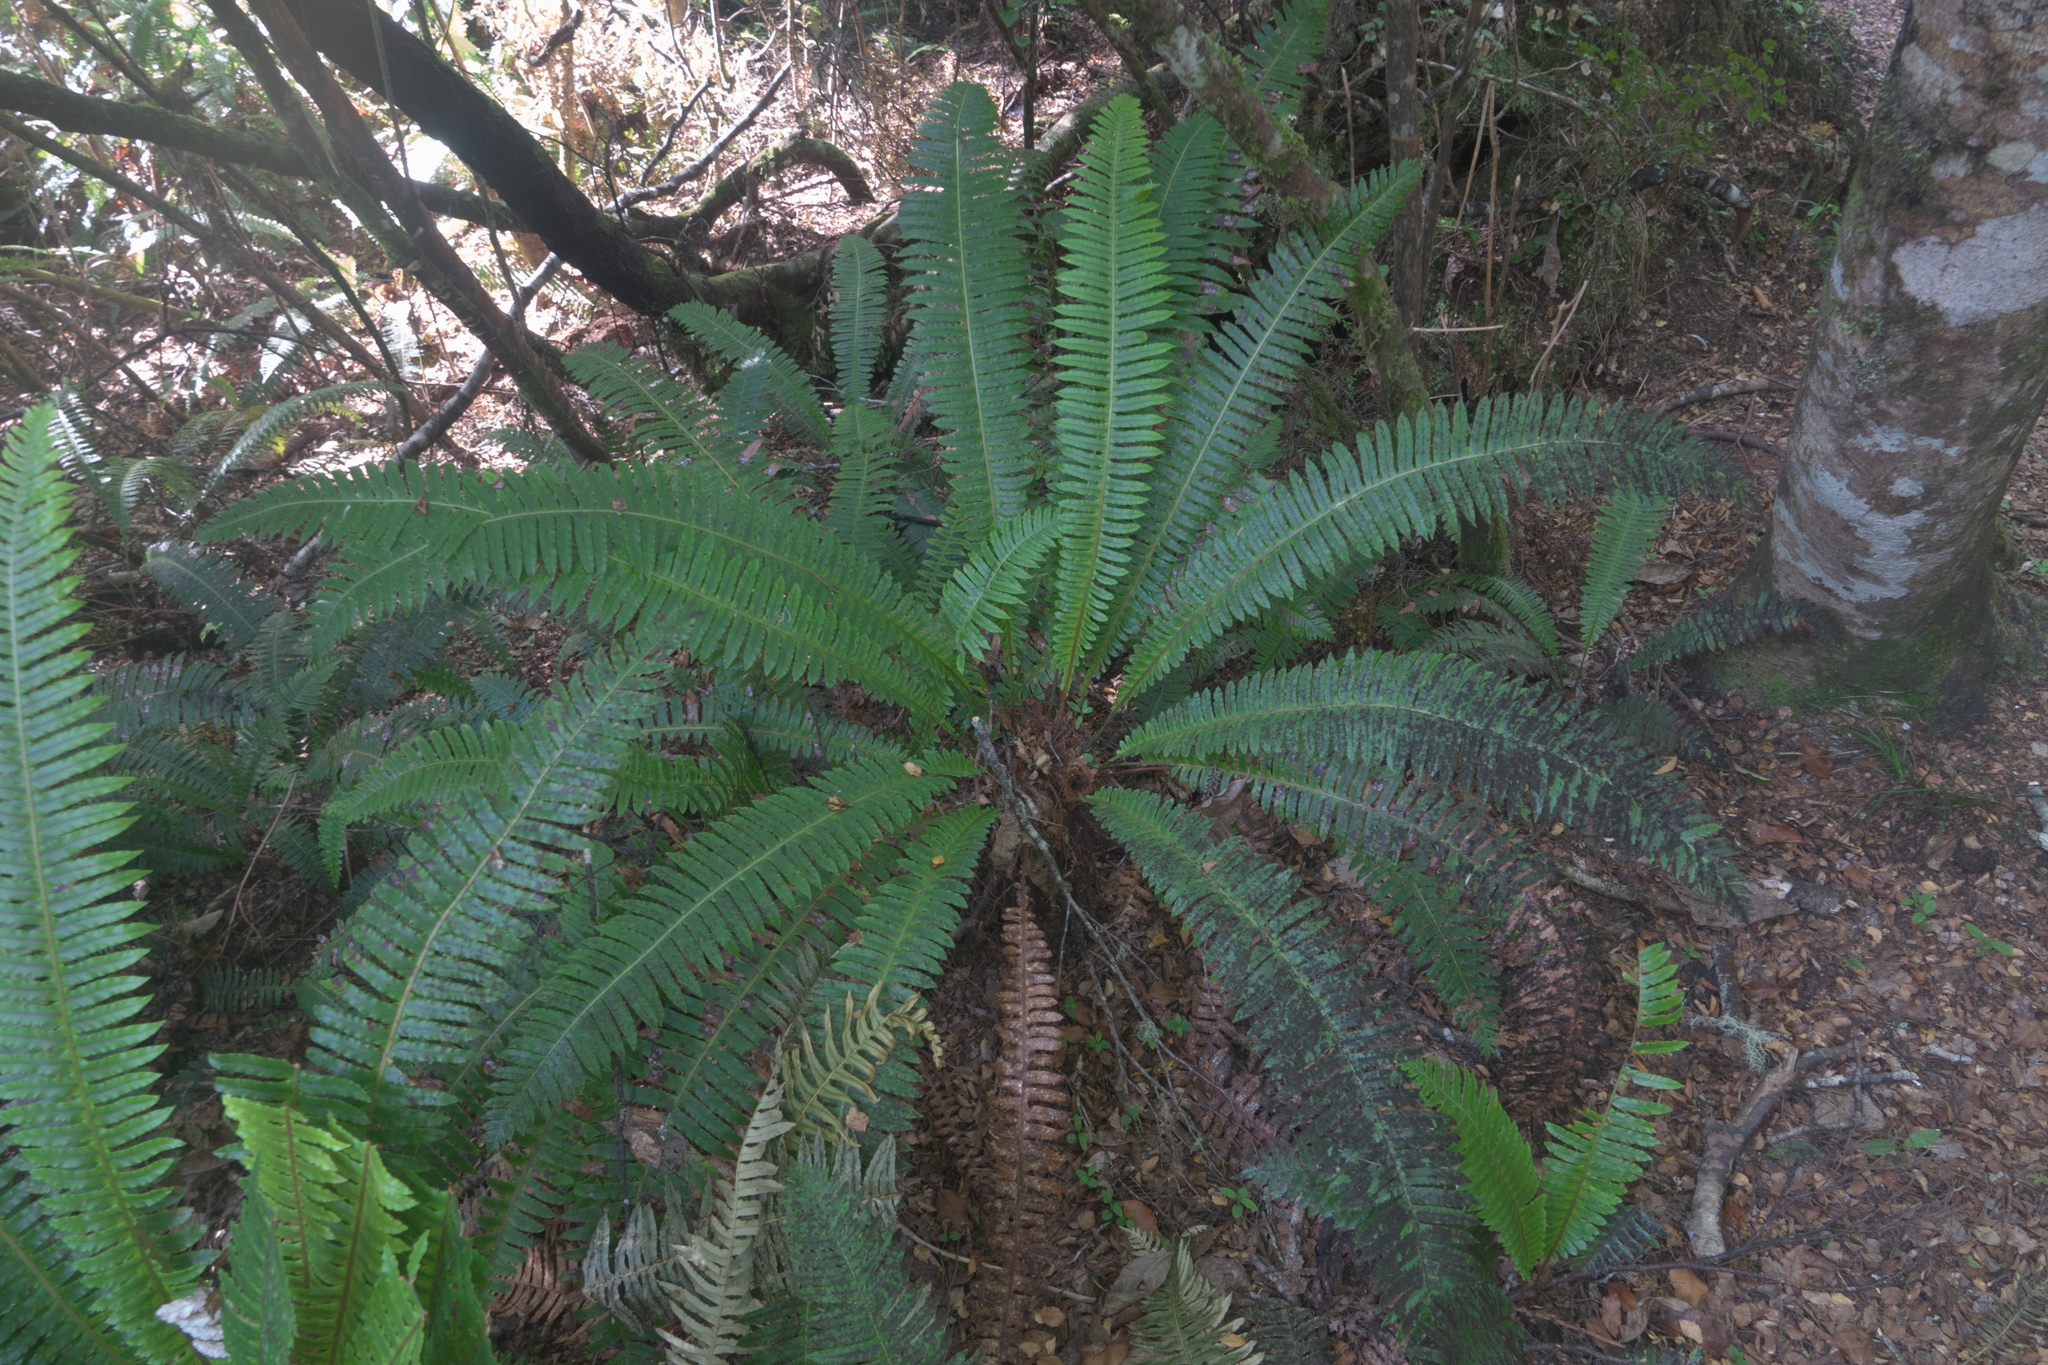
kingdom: Plantae
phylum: Tracheophyta
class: Polypodiopsida
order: Polypodiales
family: Blechnaceae
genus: Lomaria
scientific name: Lomaria discolor
